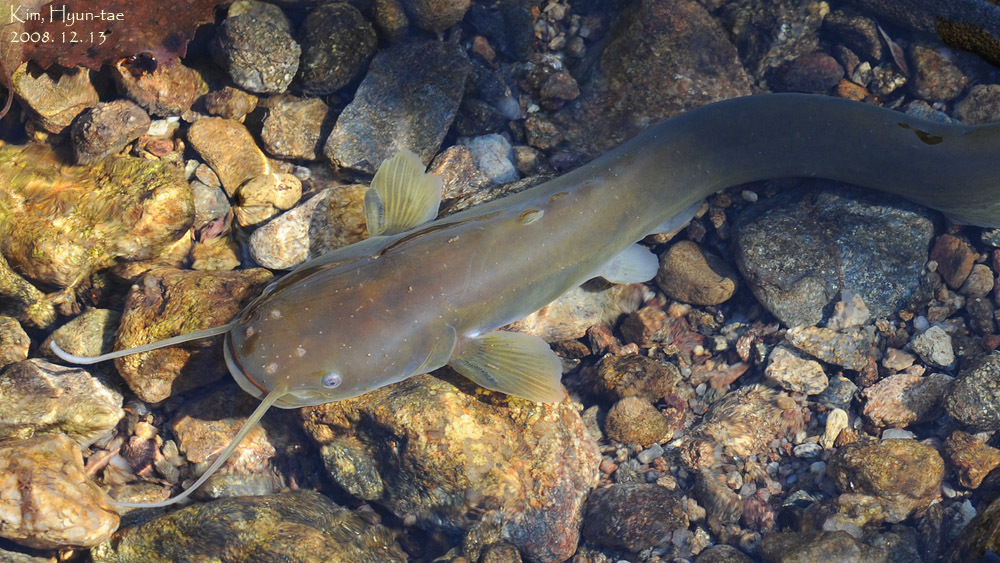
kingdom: Animalia
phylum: Chordata
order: Siluriformes
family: Siluridae
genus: Silurus
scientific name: Silurus microdorsalis
